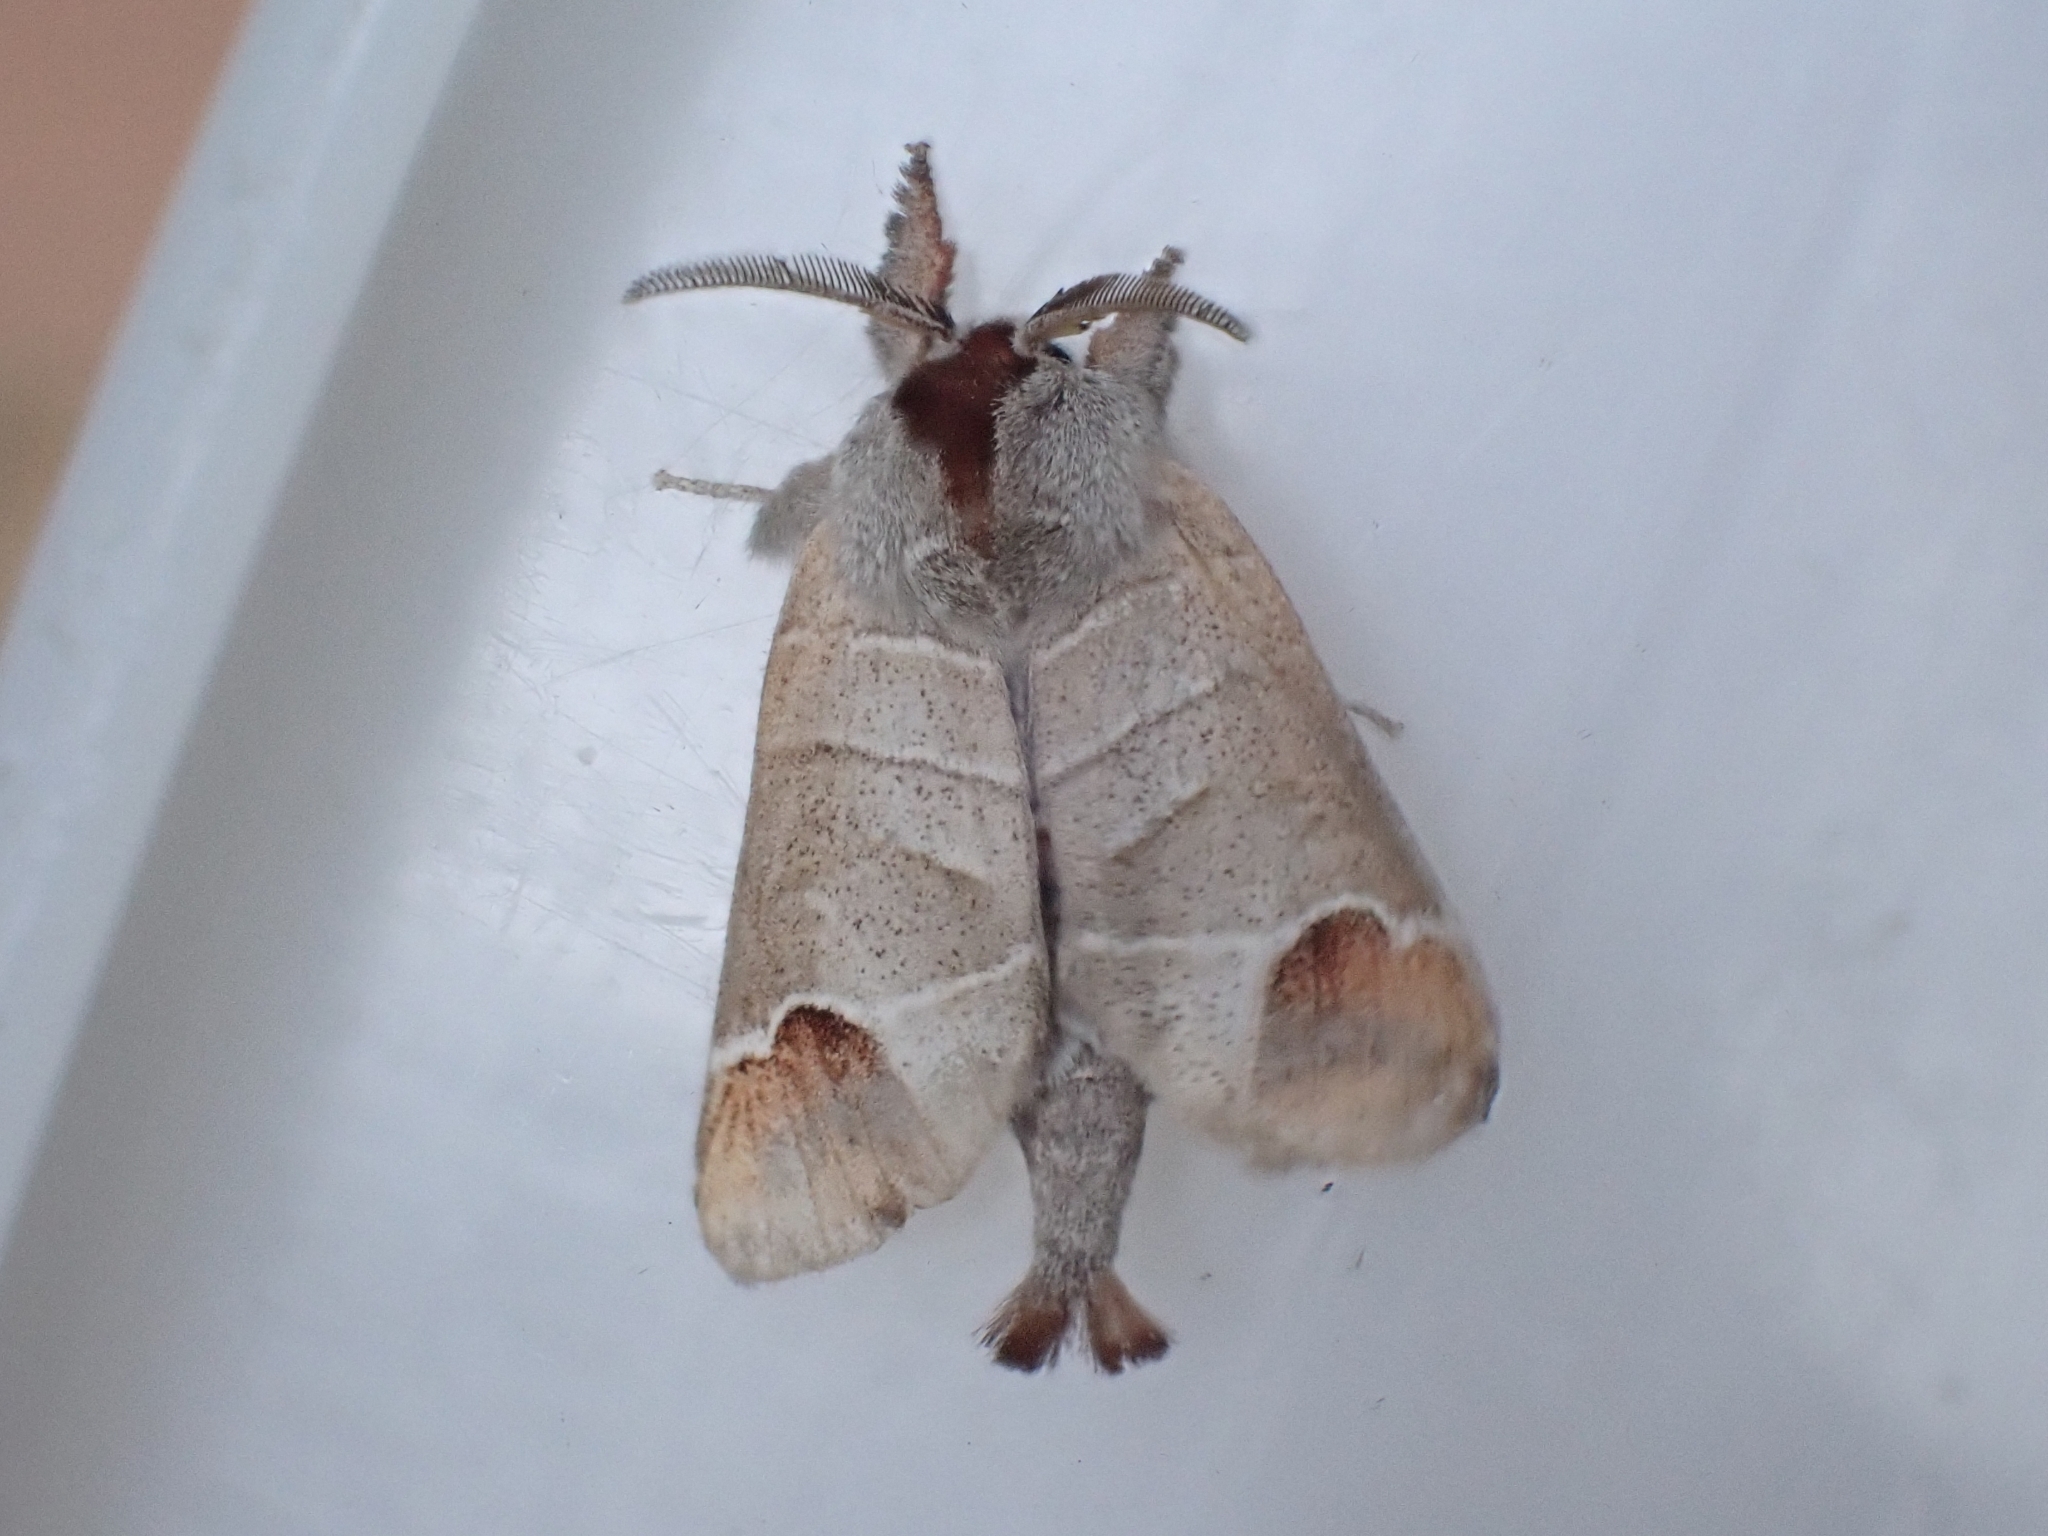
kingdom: Animalia
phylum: Arthropoda
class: Insecta
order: Lepidoptera
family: Notodontidae
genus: Clostera
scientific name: Clostera curtula
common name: Chocolate-tip
